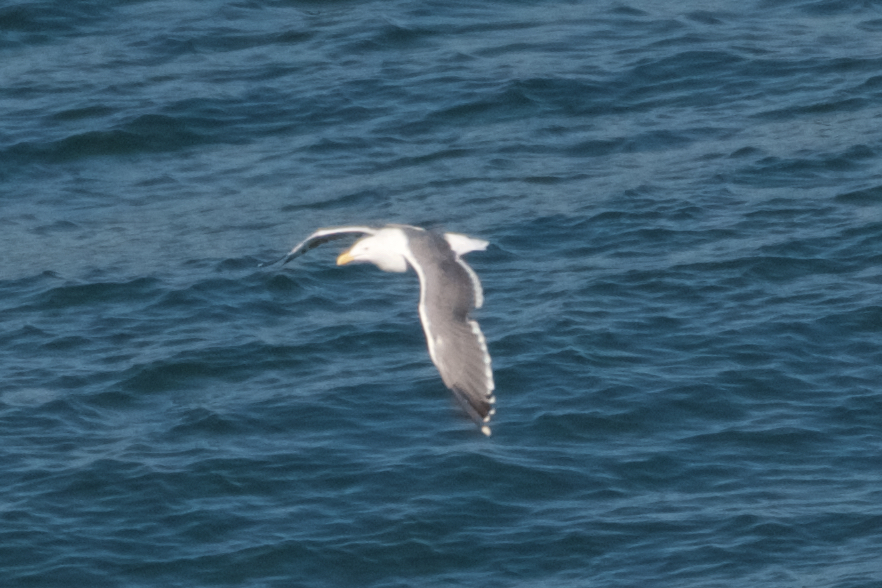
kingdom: Animalia
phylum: Chordata
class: Aves
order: Charadriiformes
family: Laridae
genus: Larus
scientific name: Larus occidentalis
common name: Western gull
